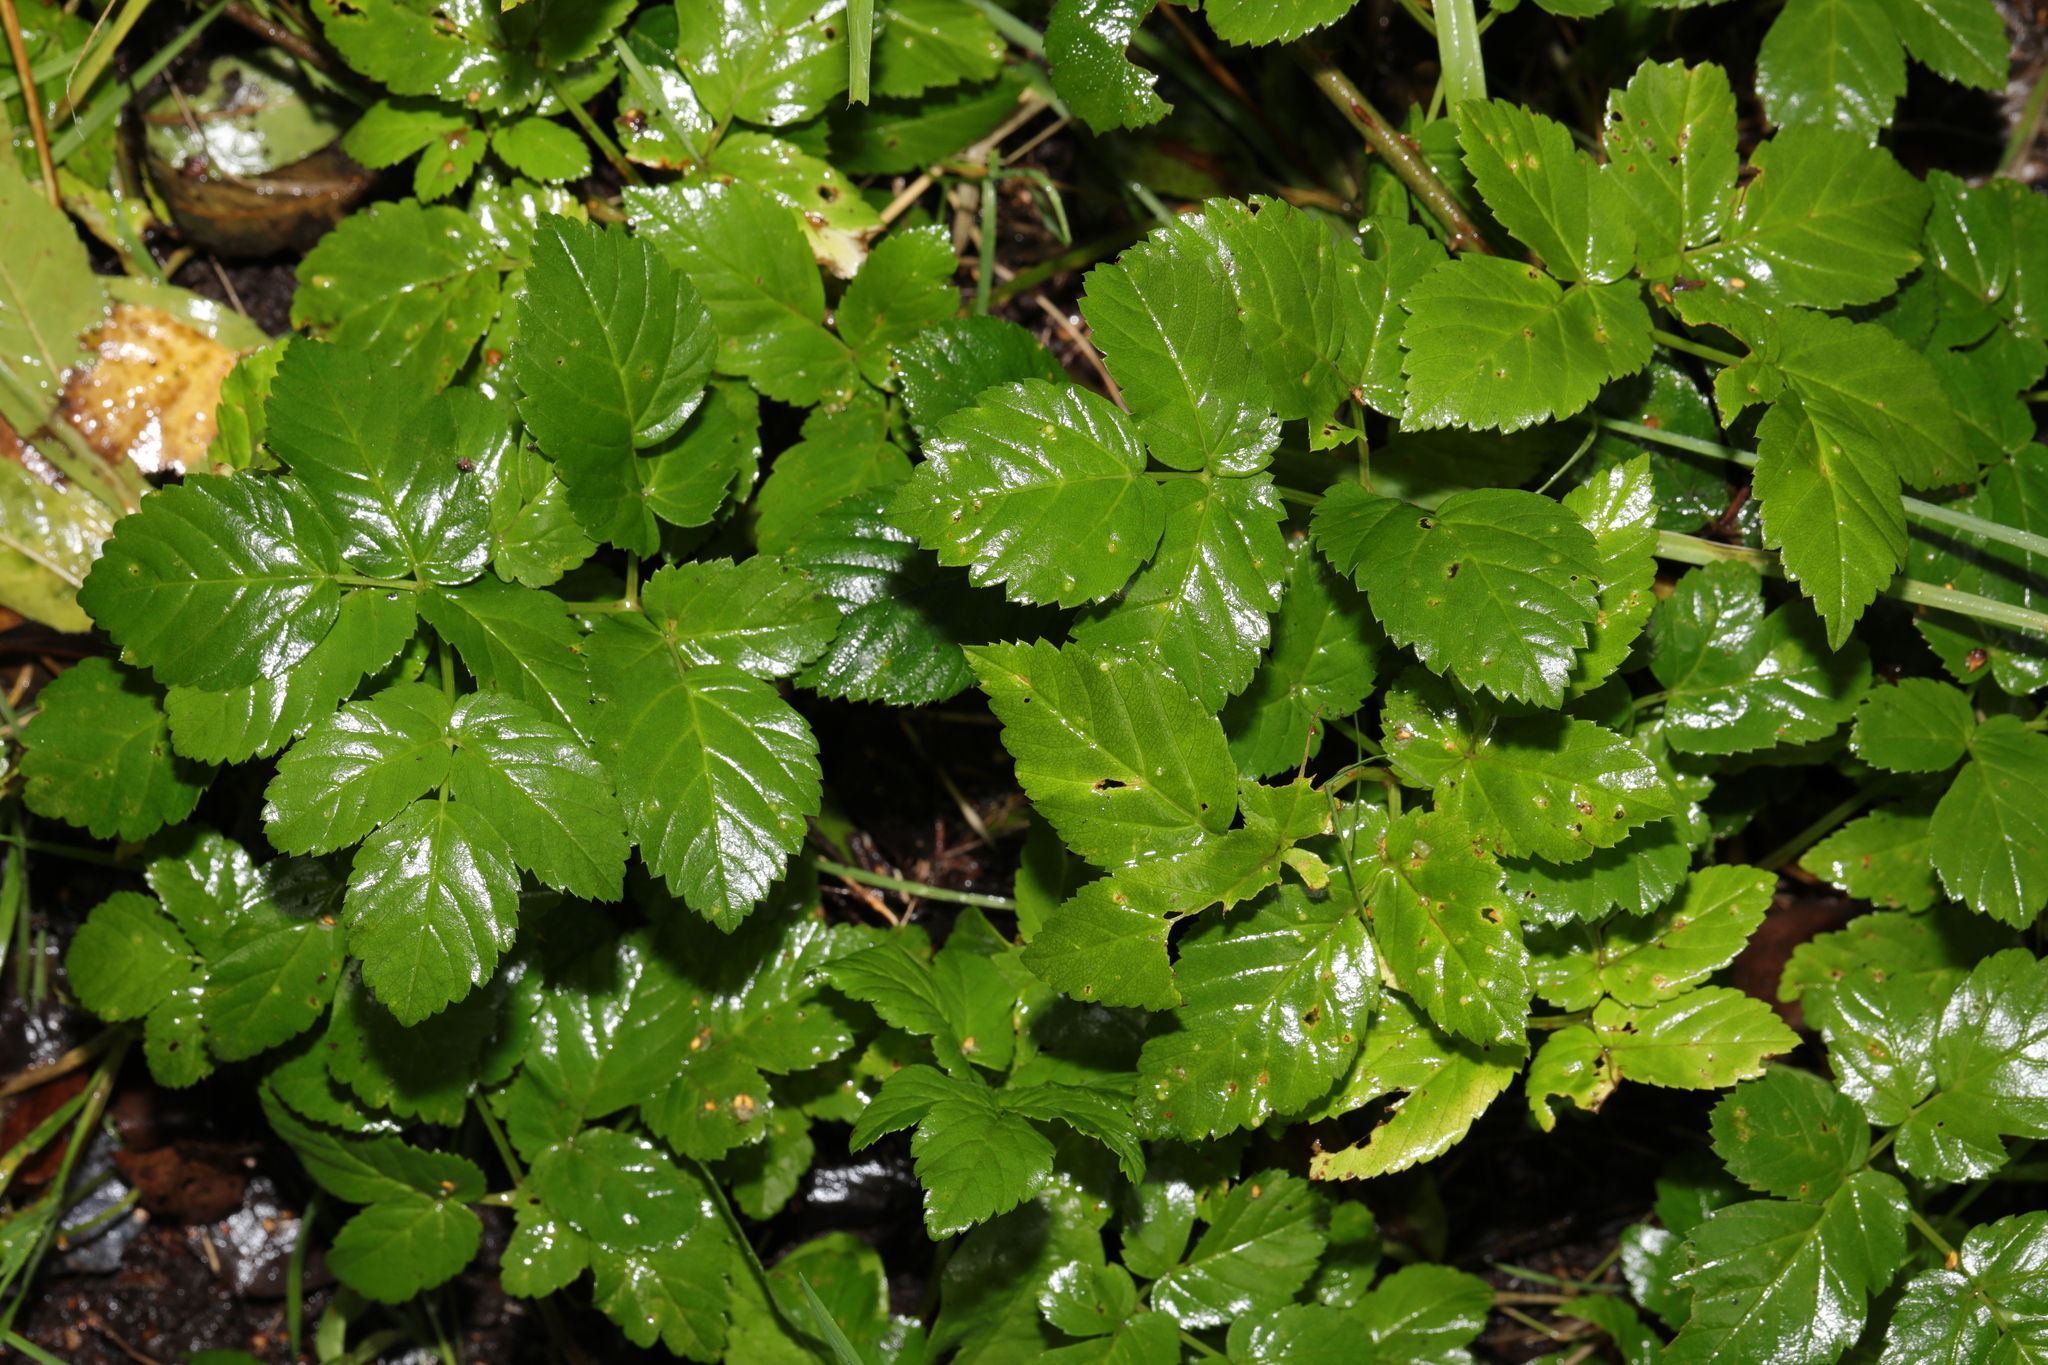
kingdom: Plantae
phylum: Tracheophyta
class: Magnoliopsida
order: Apiales
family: Apiaceae
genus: Aegopodium
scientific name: Aegopodium podagraria
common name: Ground-elder
